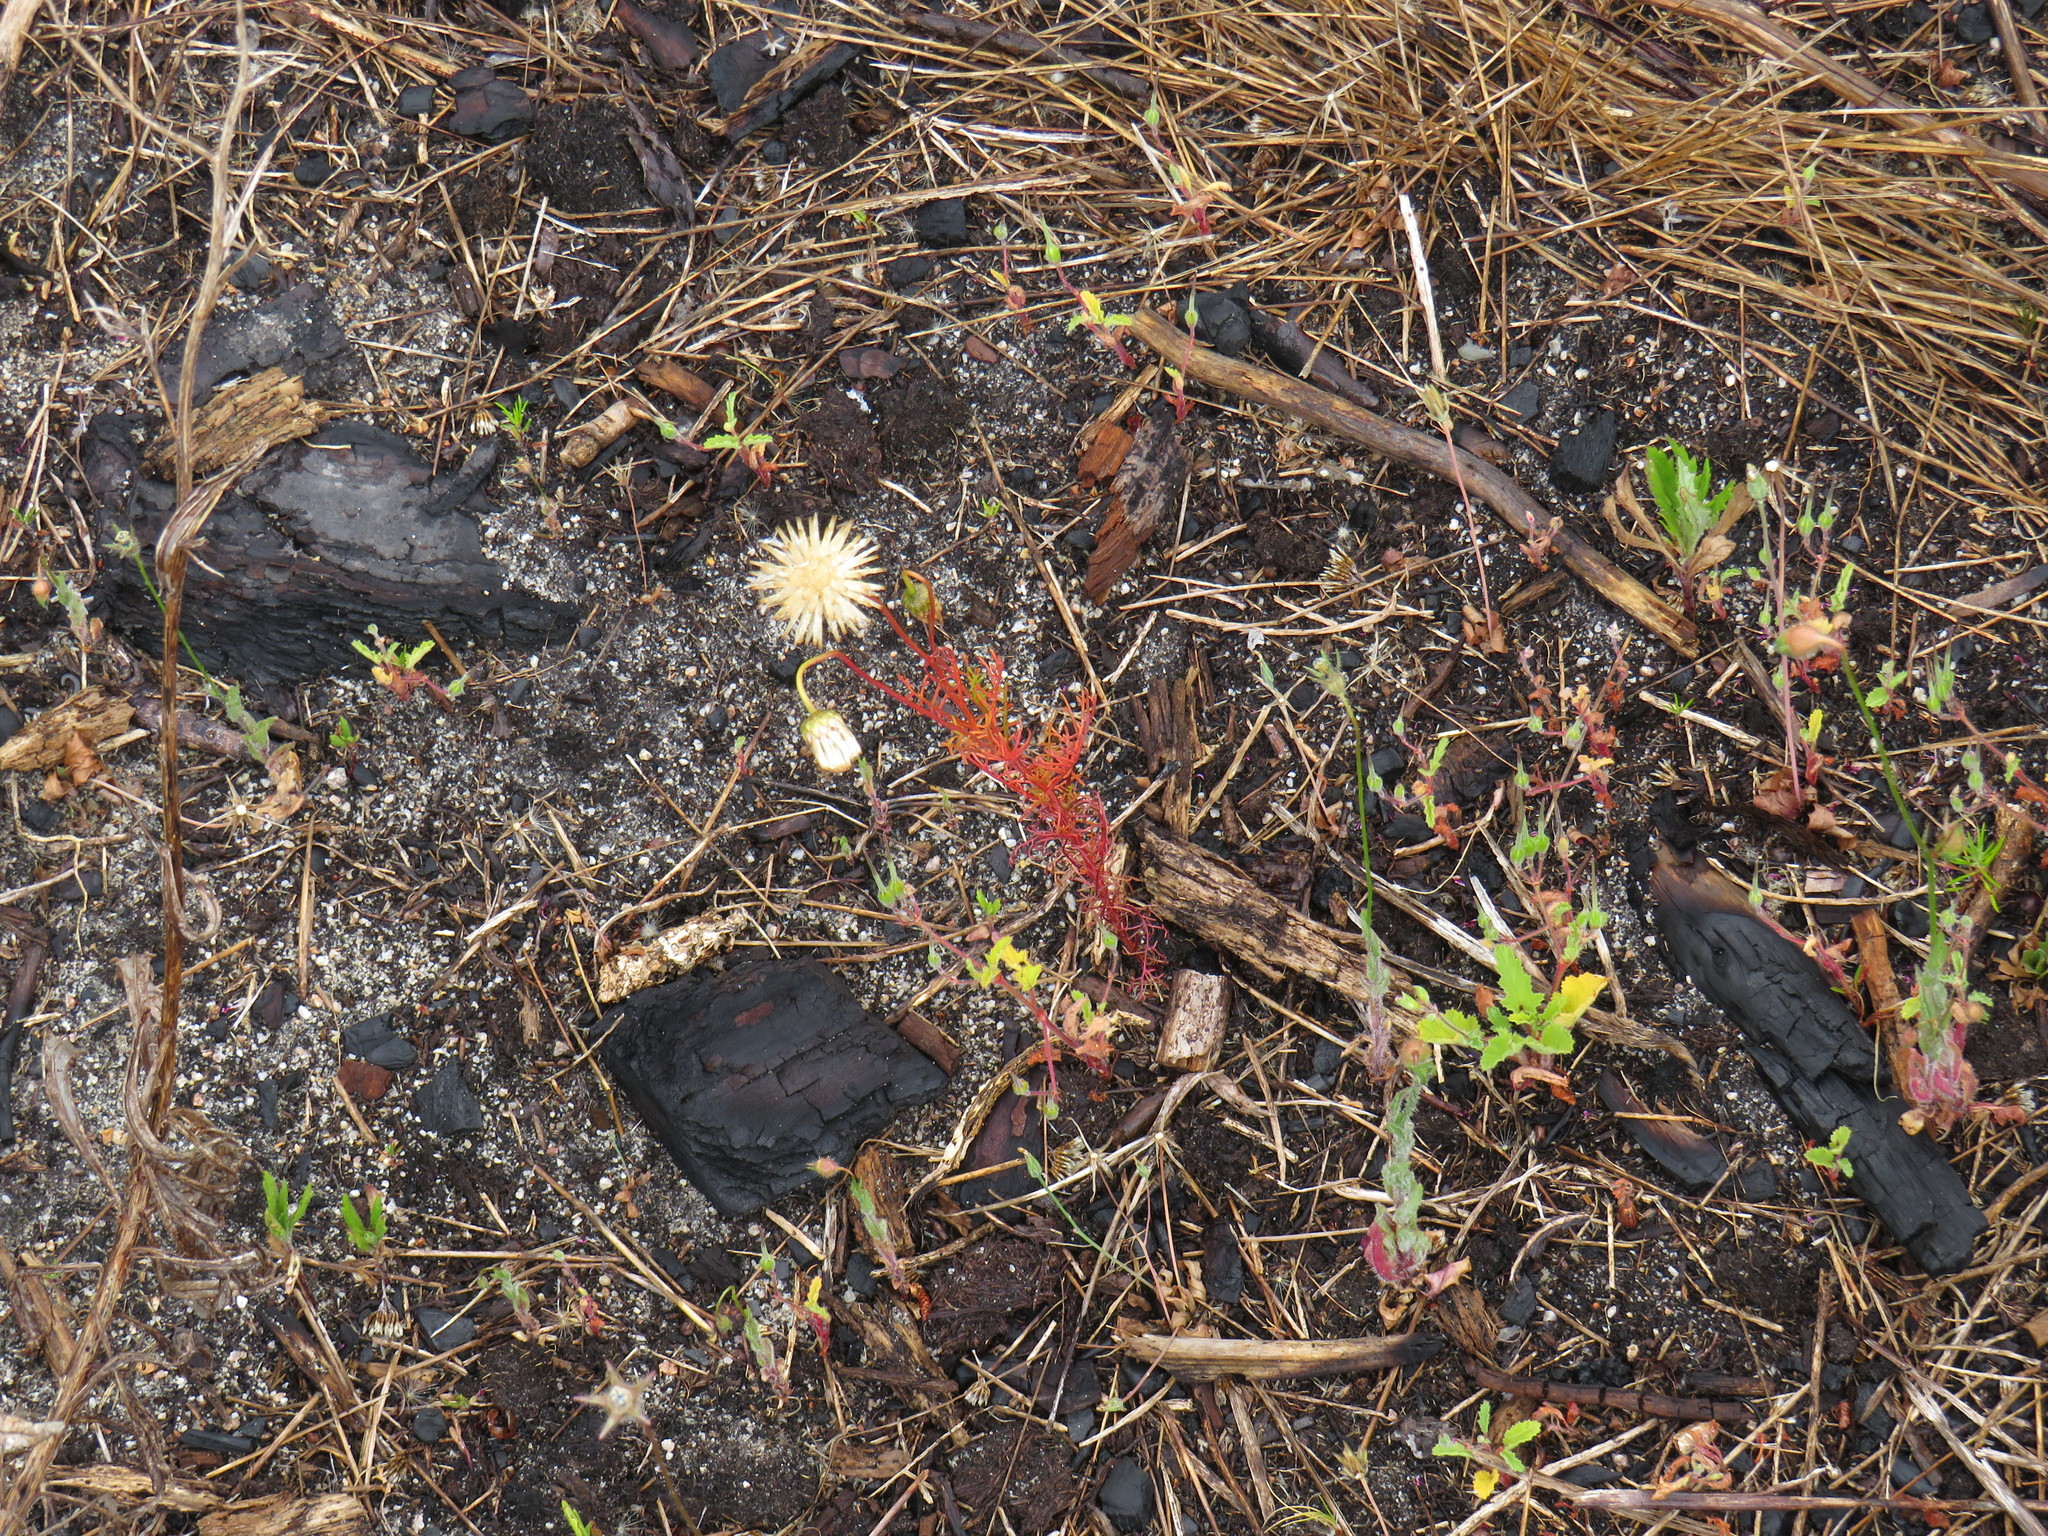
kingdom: Plantae
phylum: Tracheophyta
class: Magnoliopsida
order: Asterales
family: Asteraceae
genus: Ursinia
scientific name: Ursinia anthemoides
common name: Ursinia
